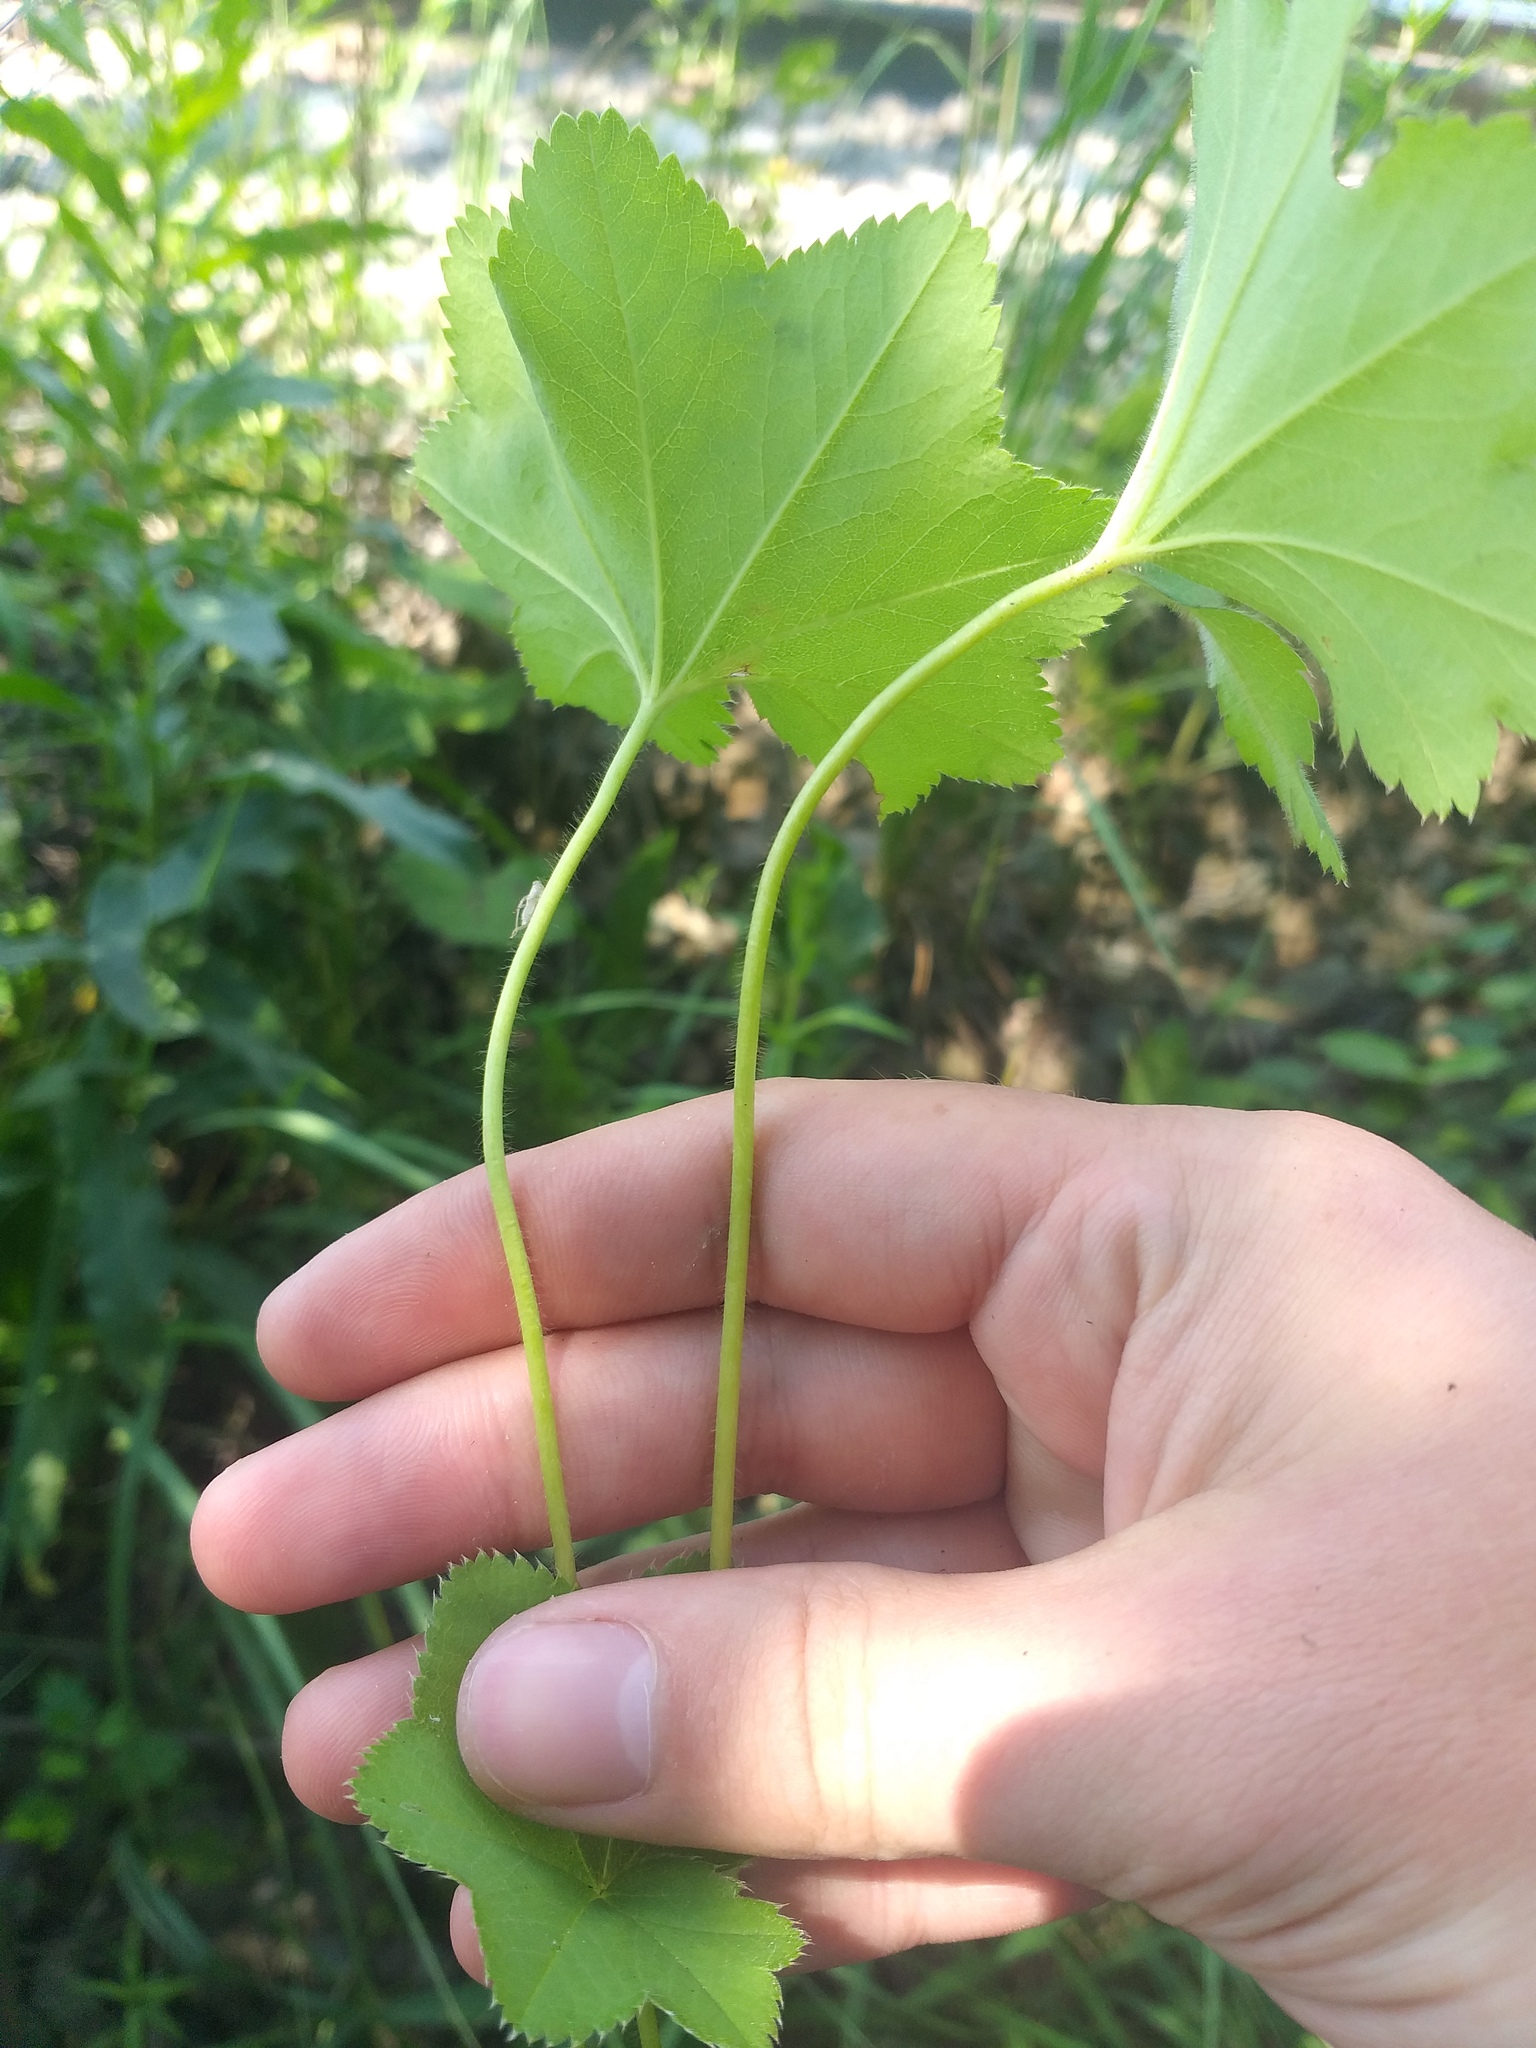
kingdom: Plantae
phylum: Tracheophyta
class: Magnoliopsida
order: Rosales
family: Rosaceae
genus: Alchemilla
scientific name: Alchemilla
